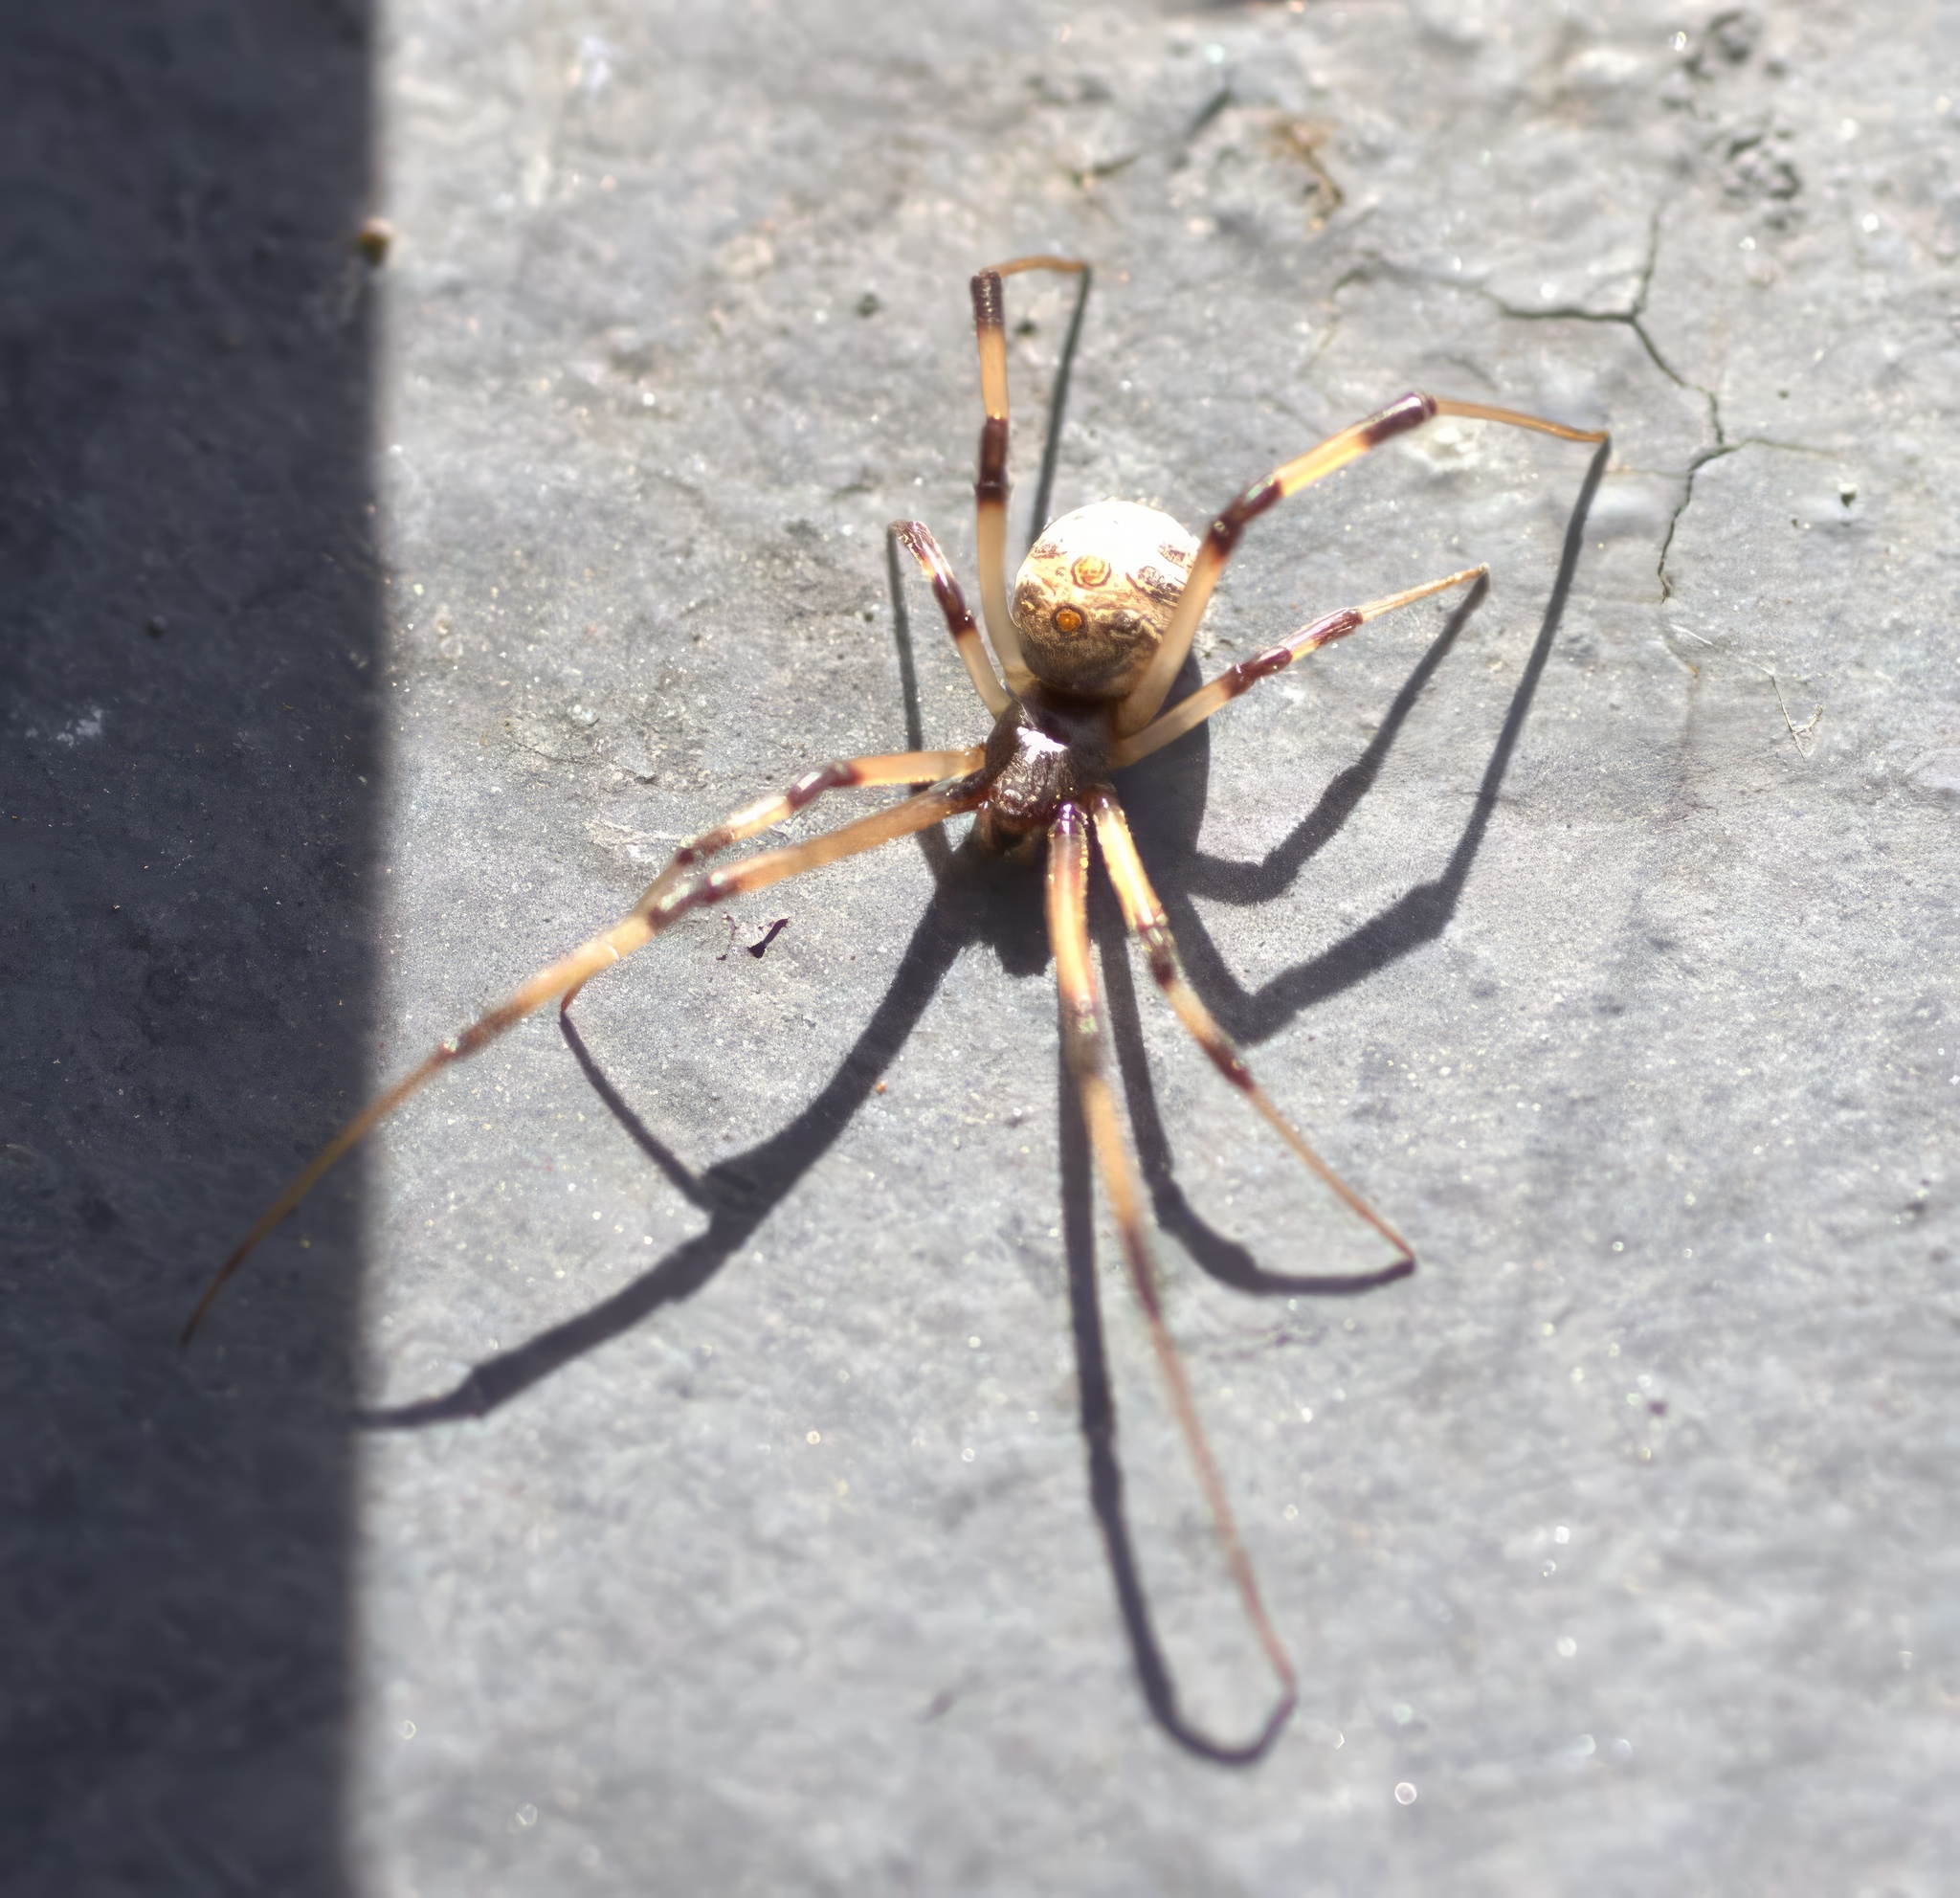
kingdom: Animalia
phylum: Arthropoda
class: Arachnida
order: Araneae
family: Theridiidae
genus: Latrodectus
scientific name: Latrodectus geometricus
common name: Brown widow spider
